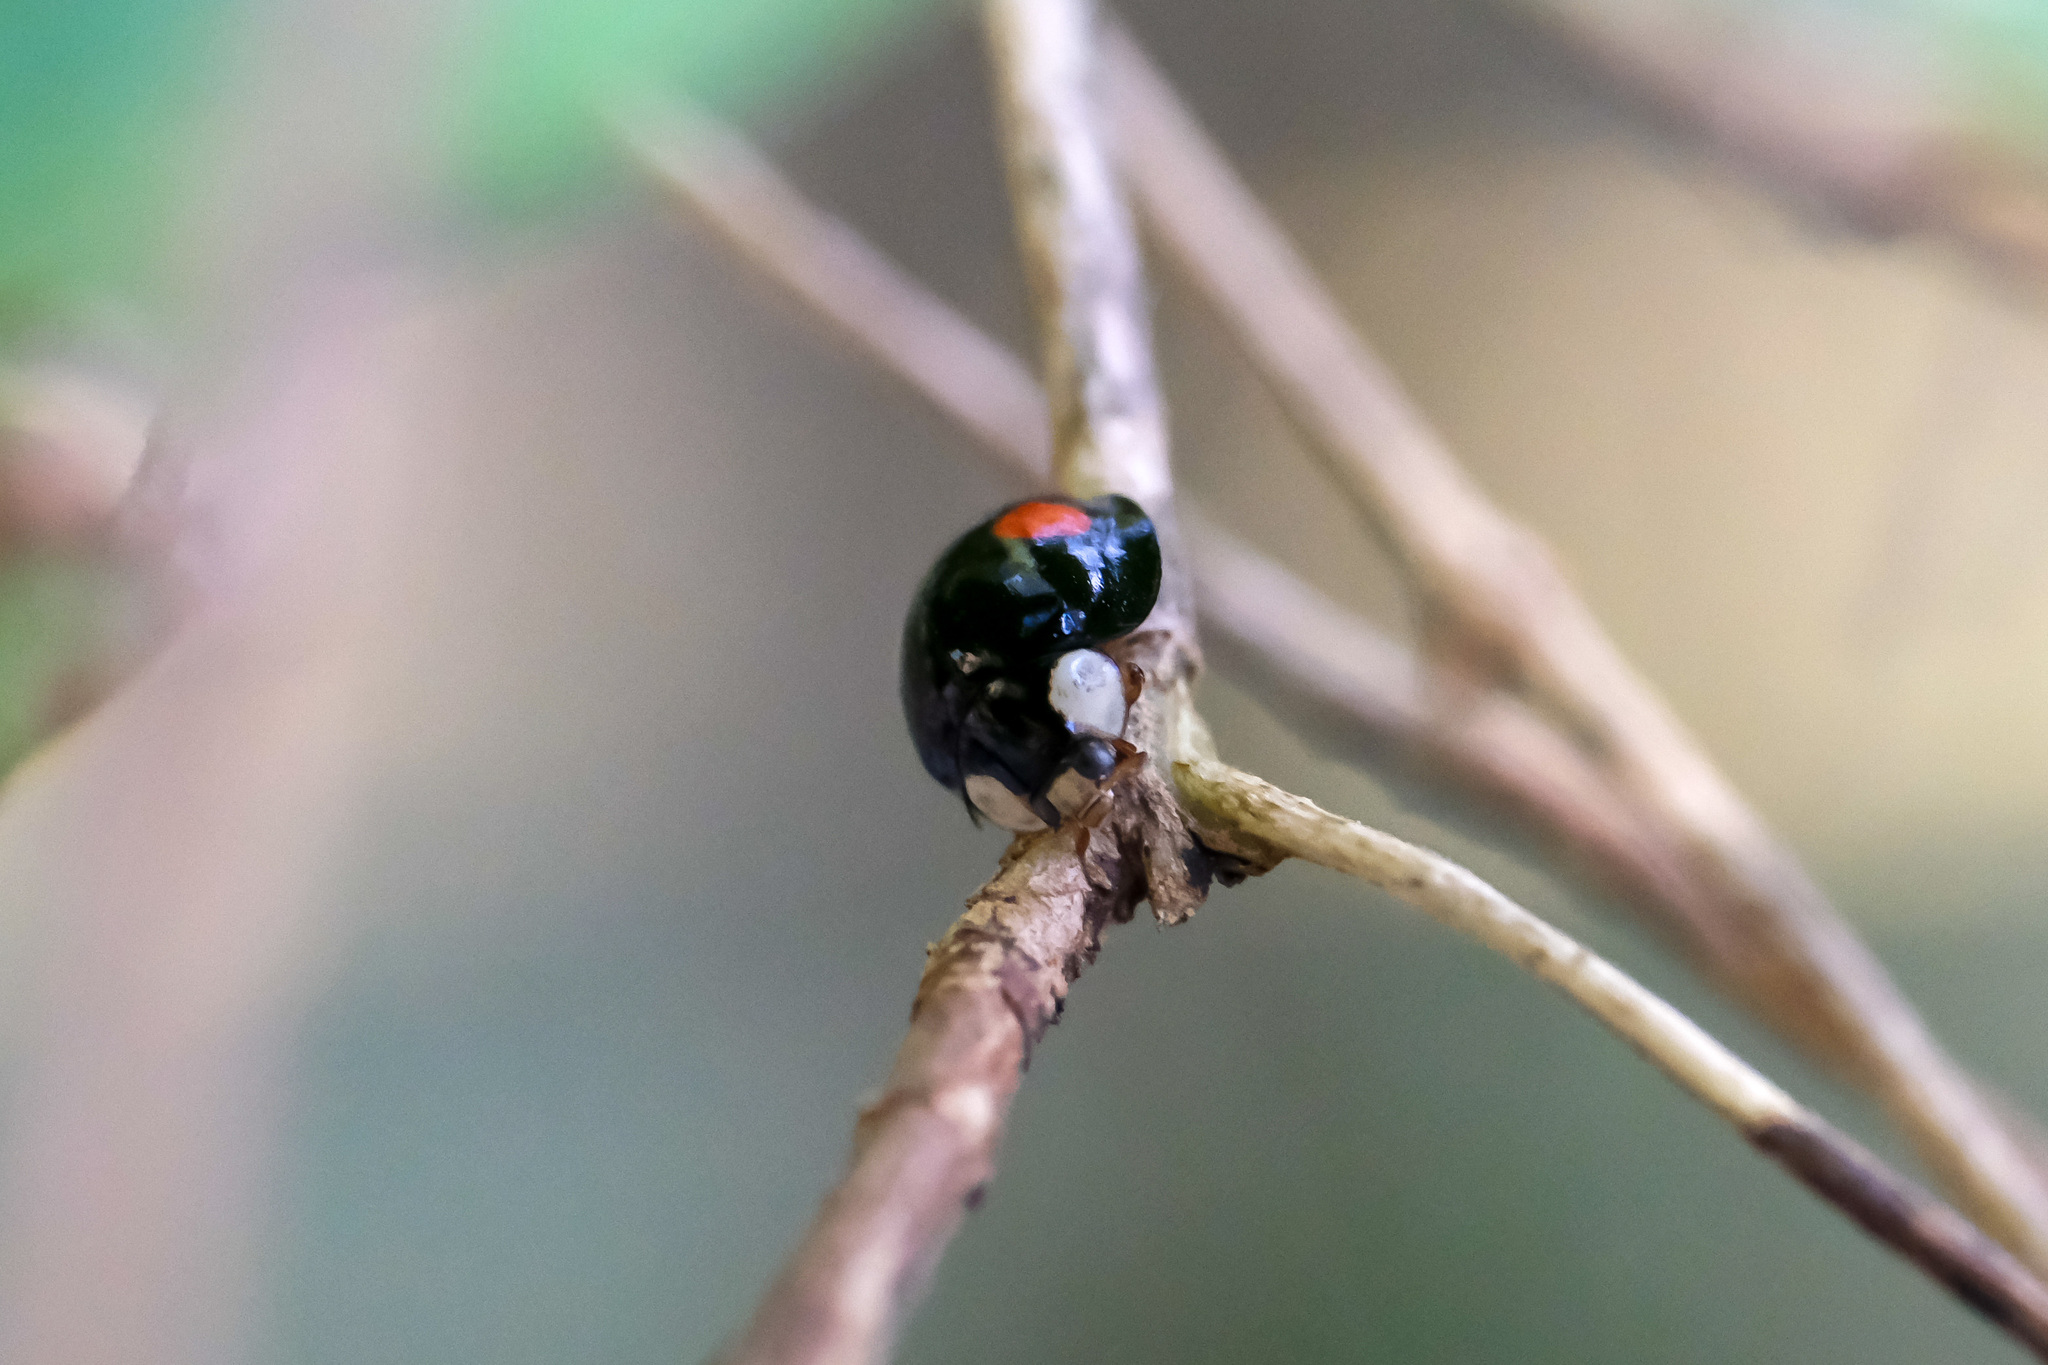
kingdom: Animalia
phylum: Arthropoda
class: Insecta
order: Coleoptera
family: Coccinellidae
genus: Coelophora
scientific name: Coelophora saucia
